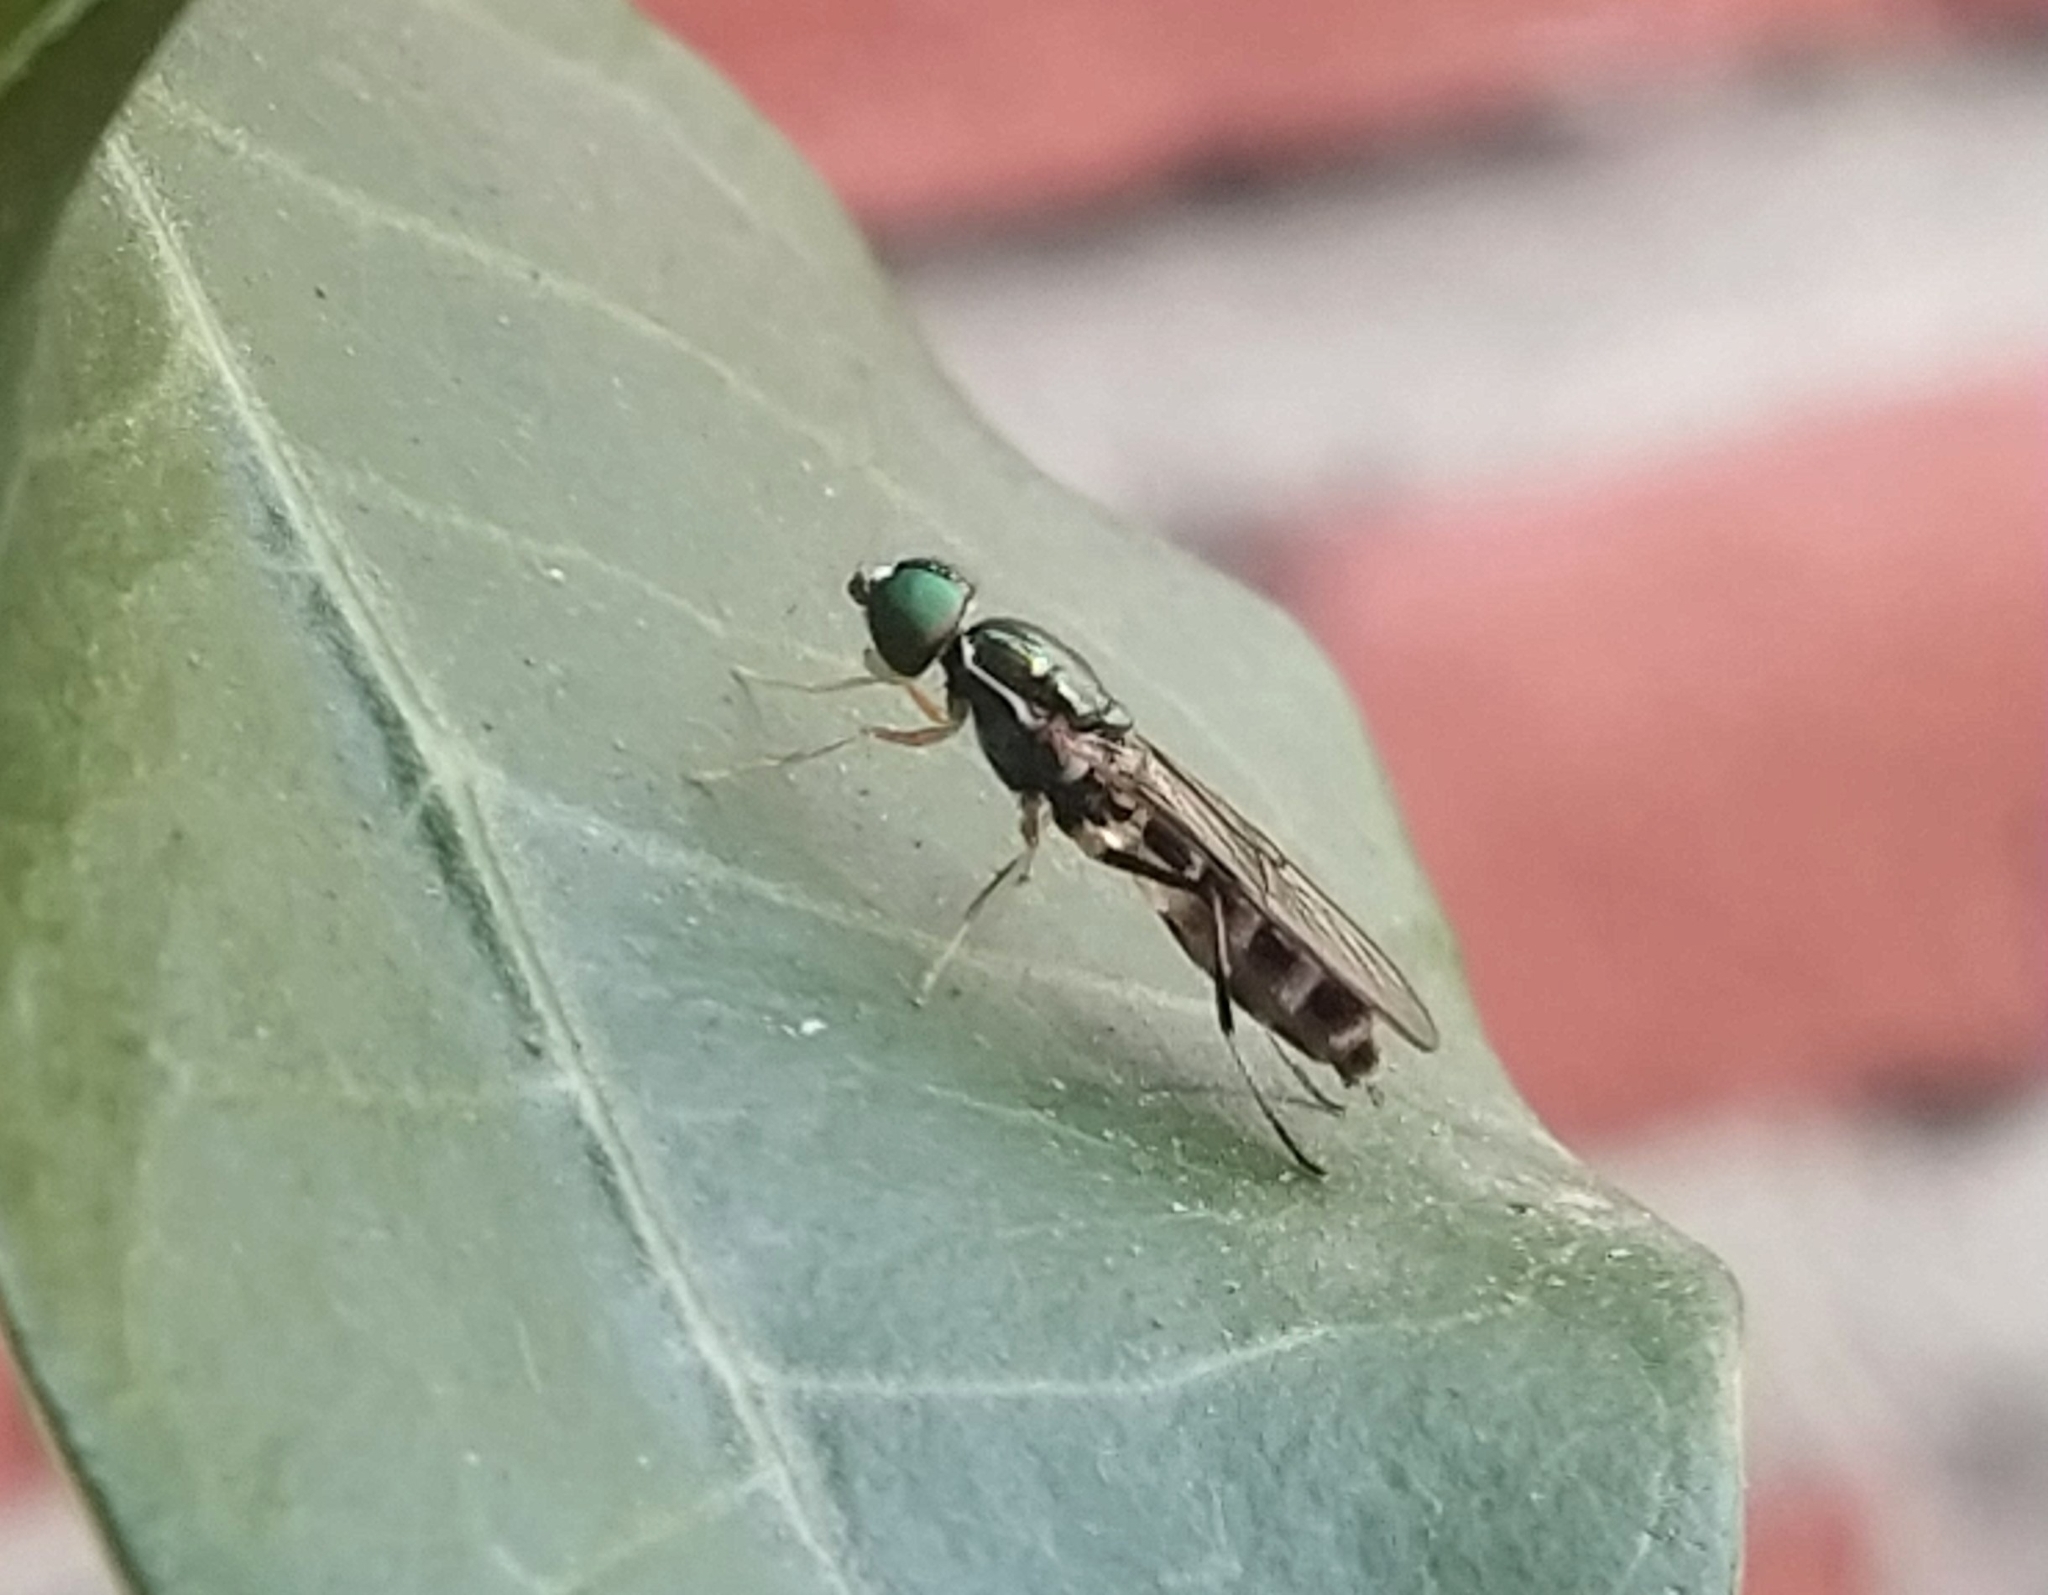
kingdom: Animalia
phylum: Arthropoda
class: Insecta
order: Diptera
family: Stratiomyidae
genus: Sargus
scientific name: Sargus fasciatus
